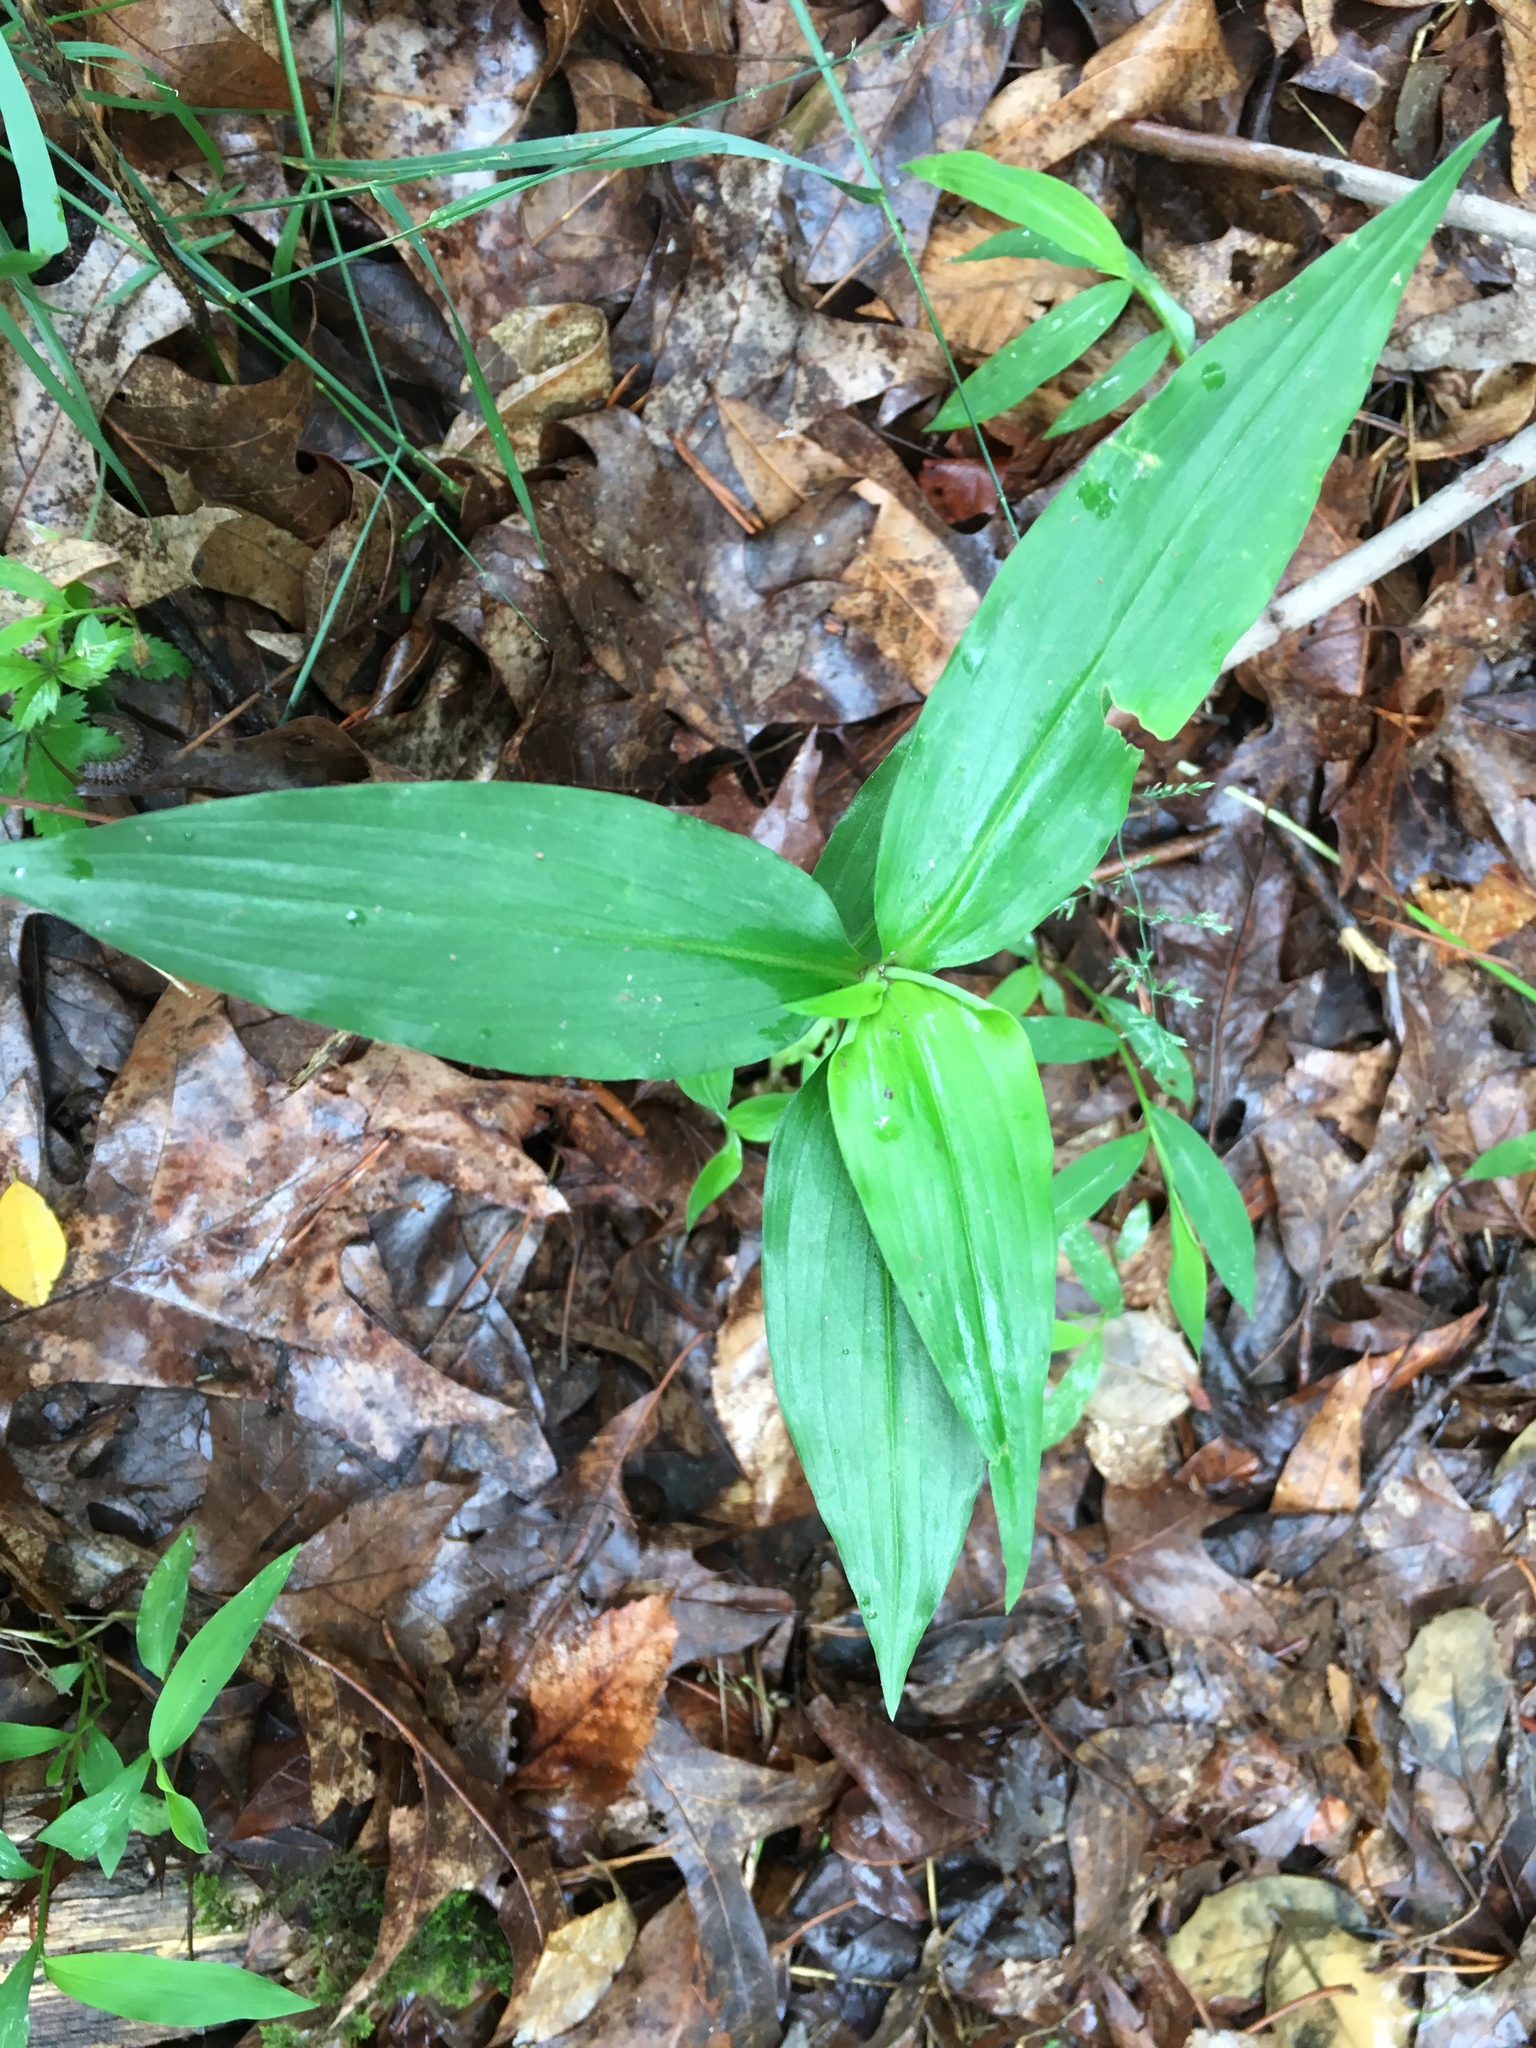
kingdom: Plantae
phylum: Tracheophyta
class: Liliopsida
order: Commelinales
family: Commelinaceae
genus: Commelina
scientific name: Commelina communis
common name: Asiatic dayflower
